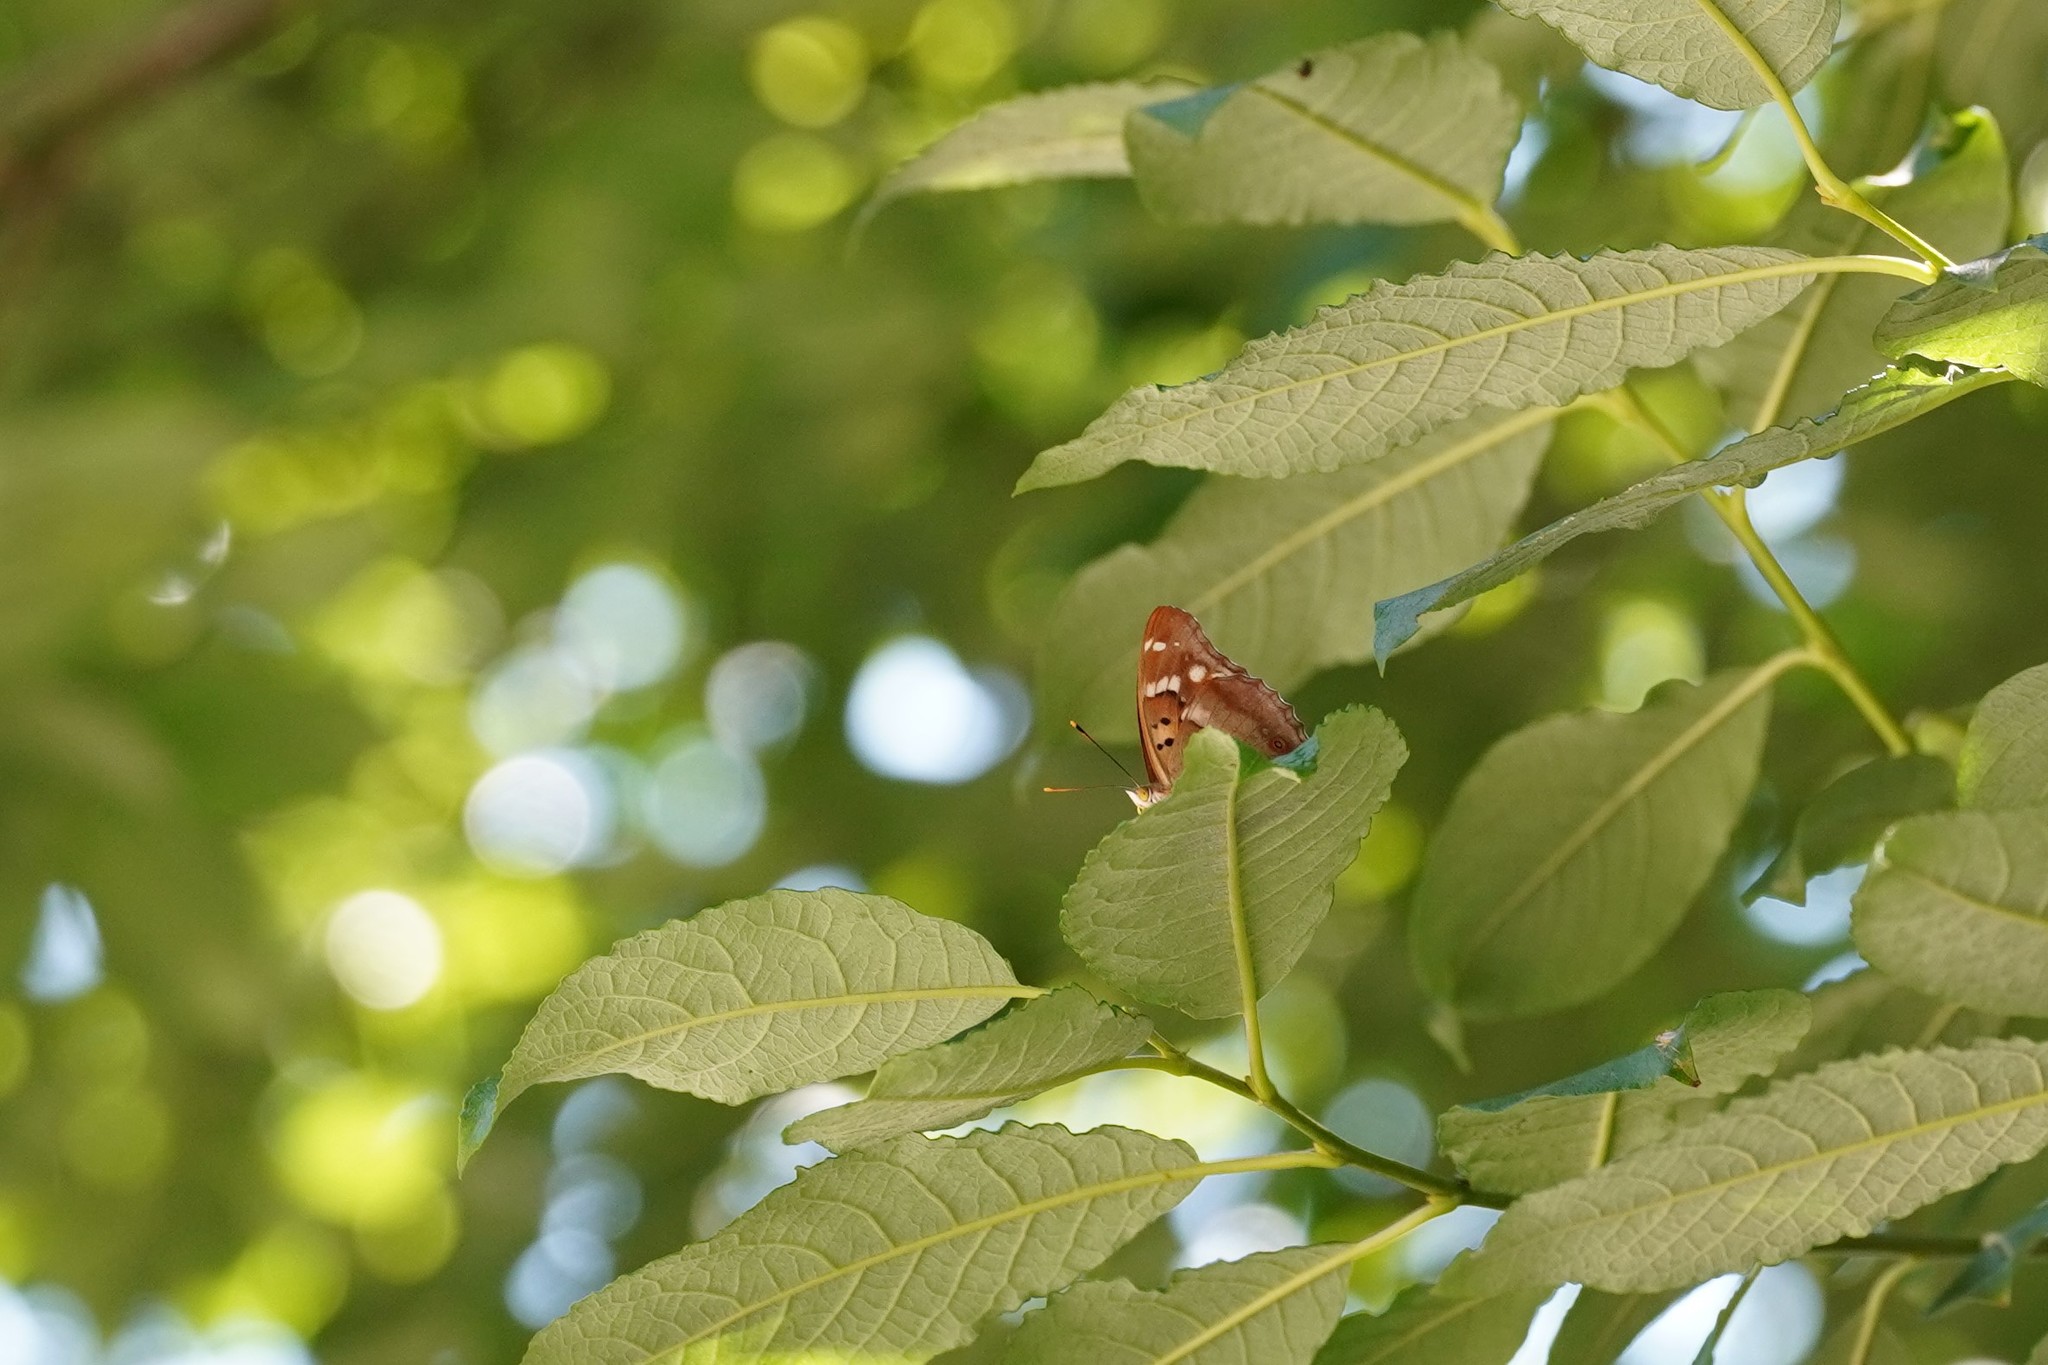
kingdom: Animalia
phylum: Arthropoda
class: Insecta
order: Lepidoptera
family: Nymphalidae
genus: Apatura
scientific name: Apatura ilia
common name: Lesser purple emperor
